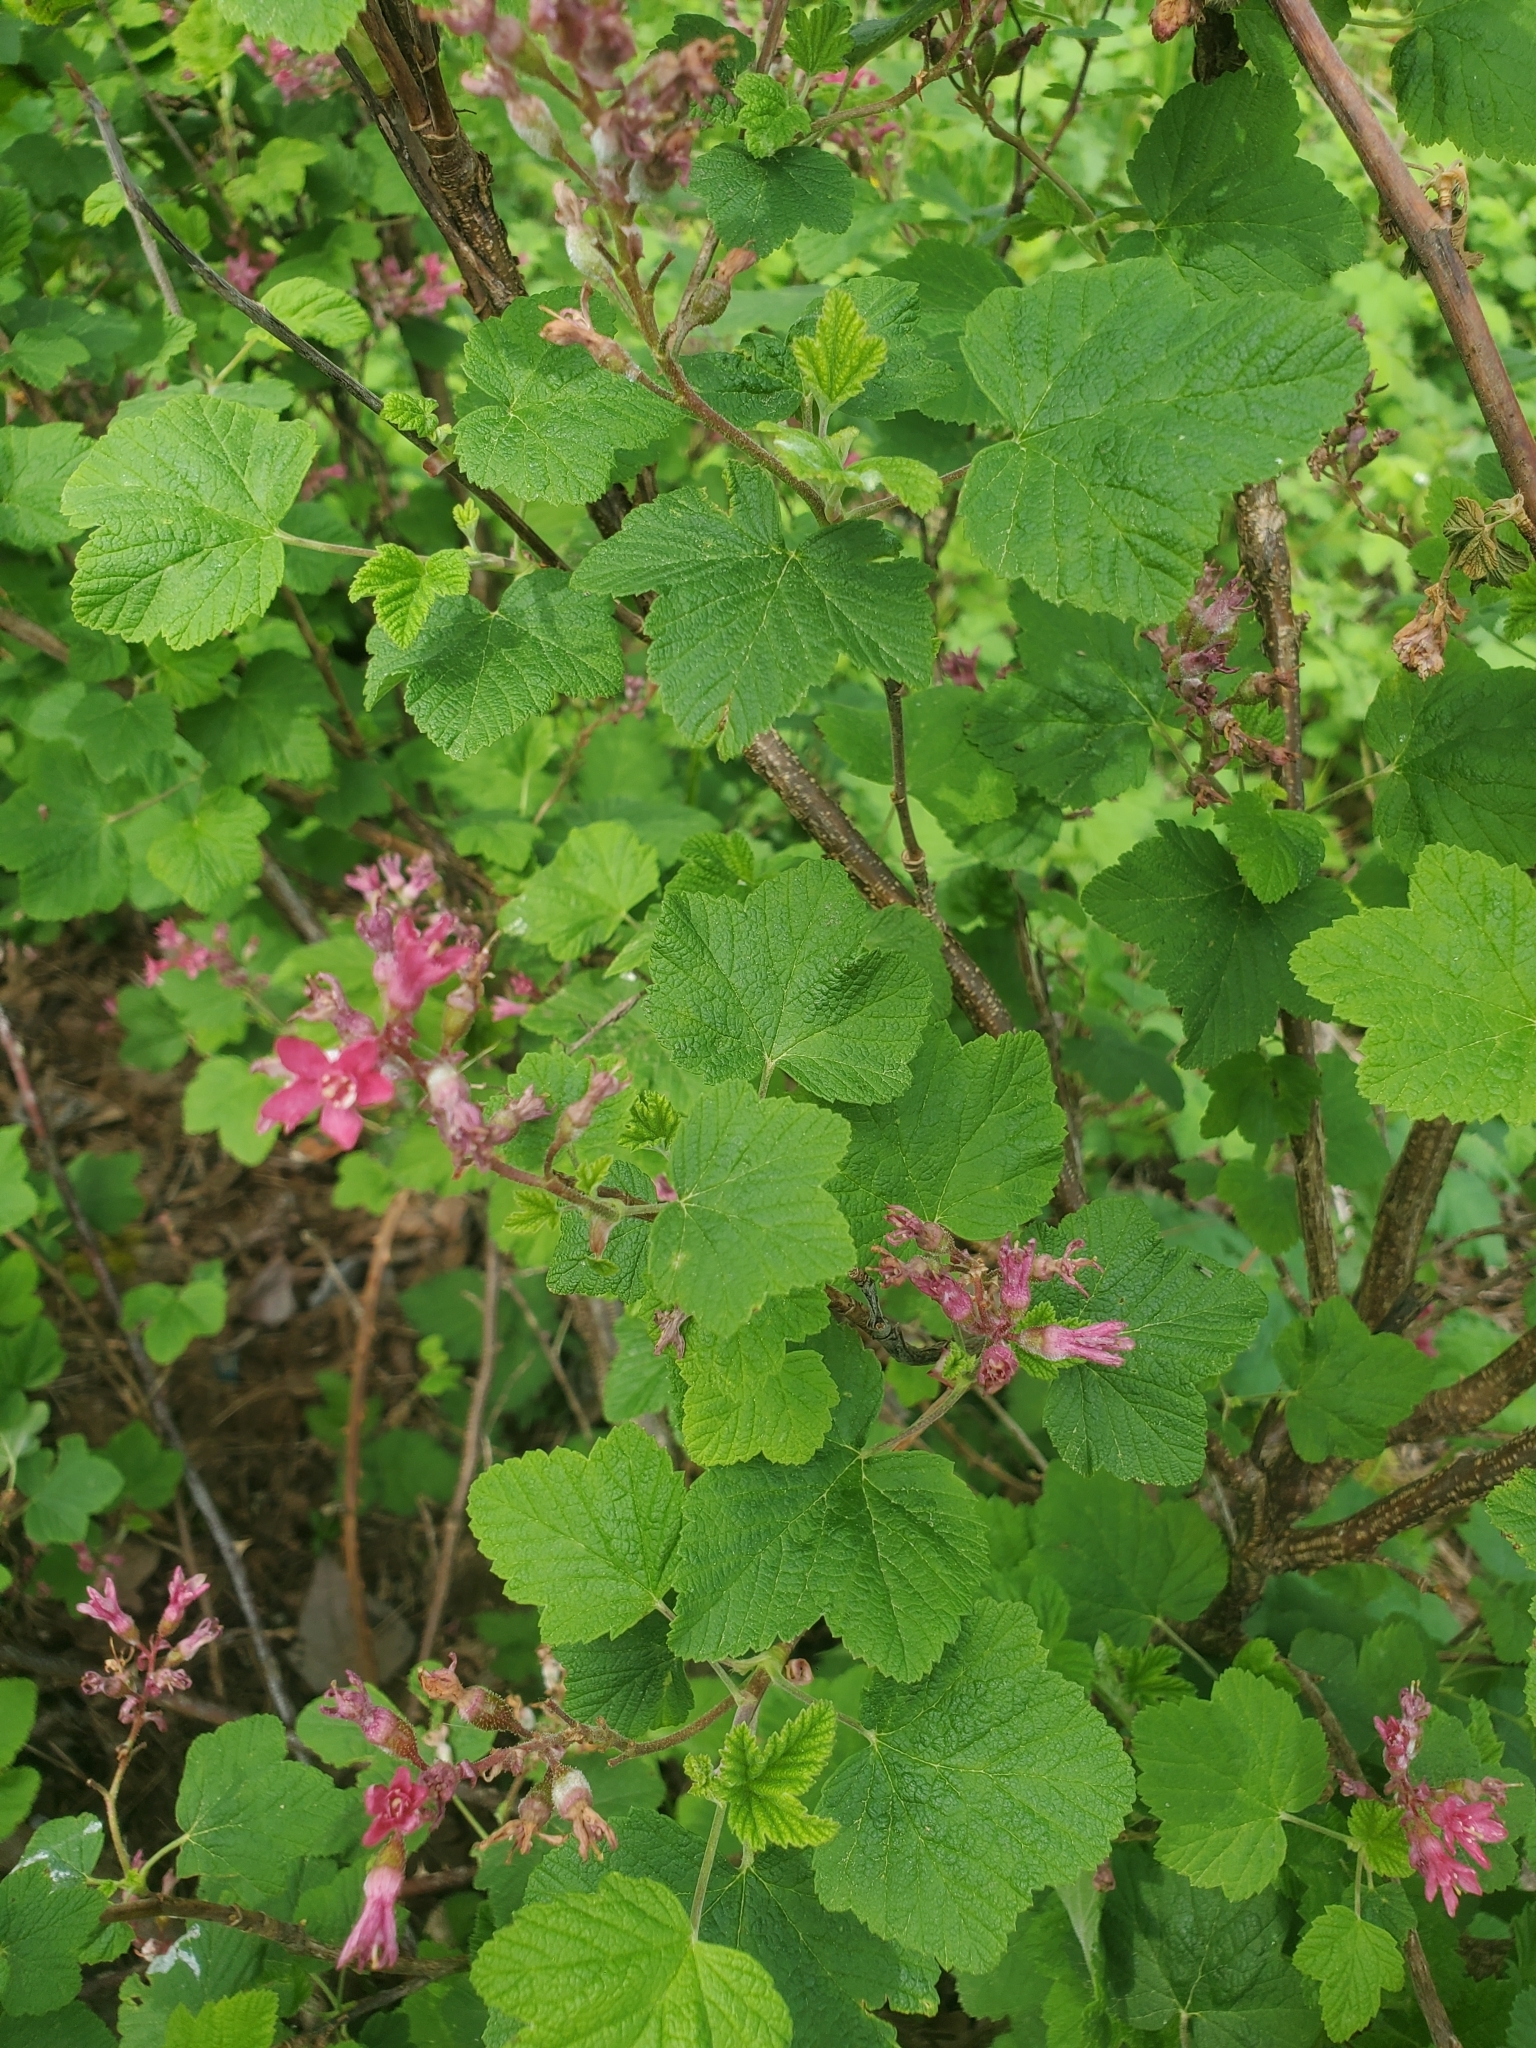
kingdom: Plantae
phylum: Tracheophyta
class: Magnoliopsida
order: Saxifragales
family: Grossulariaceae
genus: Ribes
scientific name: Ribes sanguineum
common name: Flowering currant
